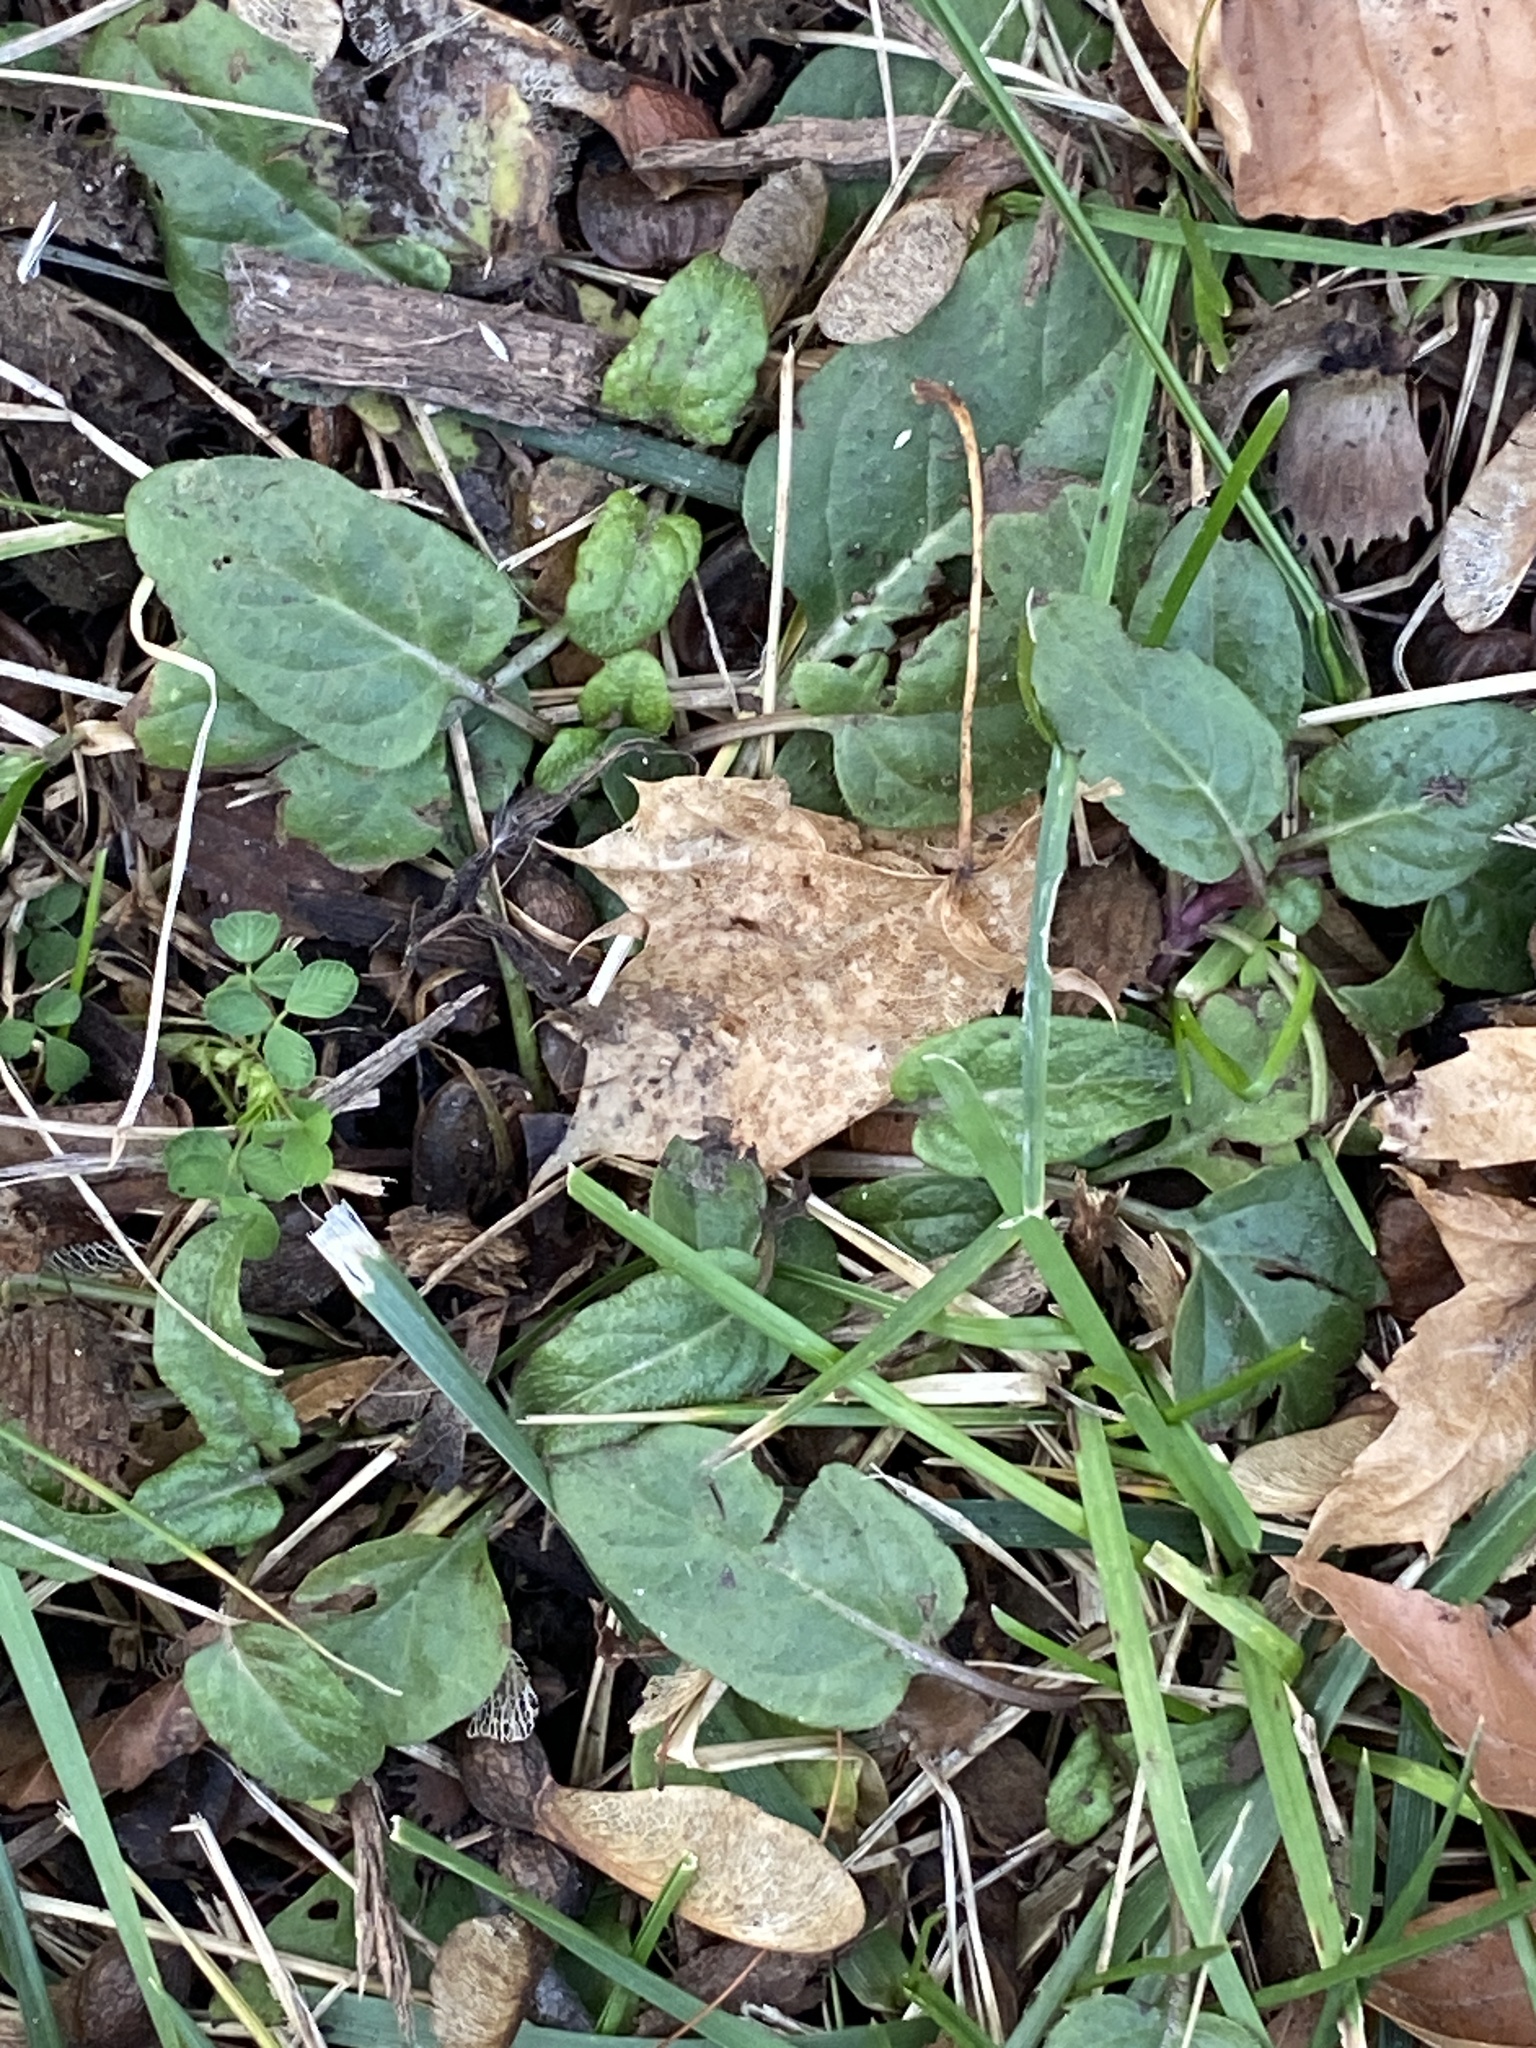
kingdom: Plantae
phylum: Tracheophyta
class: Magnoliopsida
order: Lamiales
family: Lamiaceae
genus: Prunella
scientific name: Prunella vulgaris
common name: Heal-all
